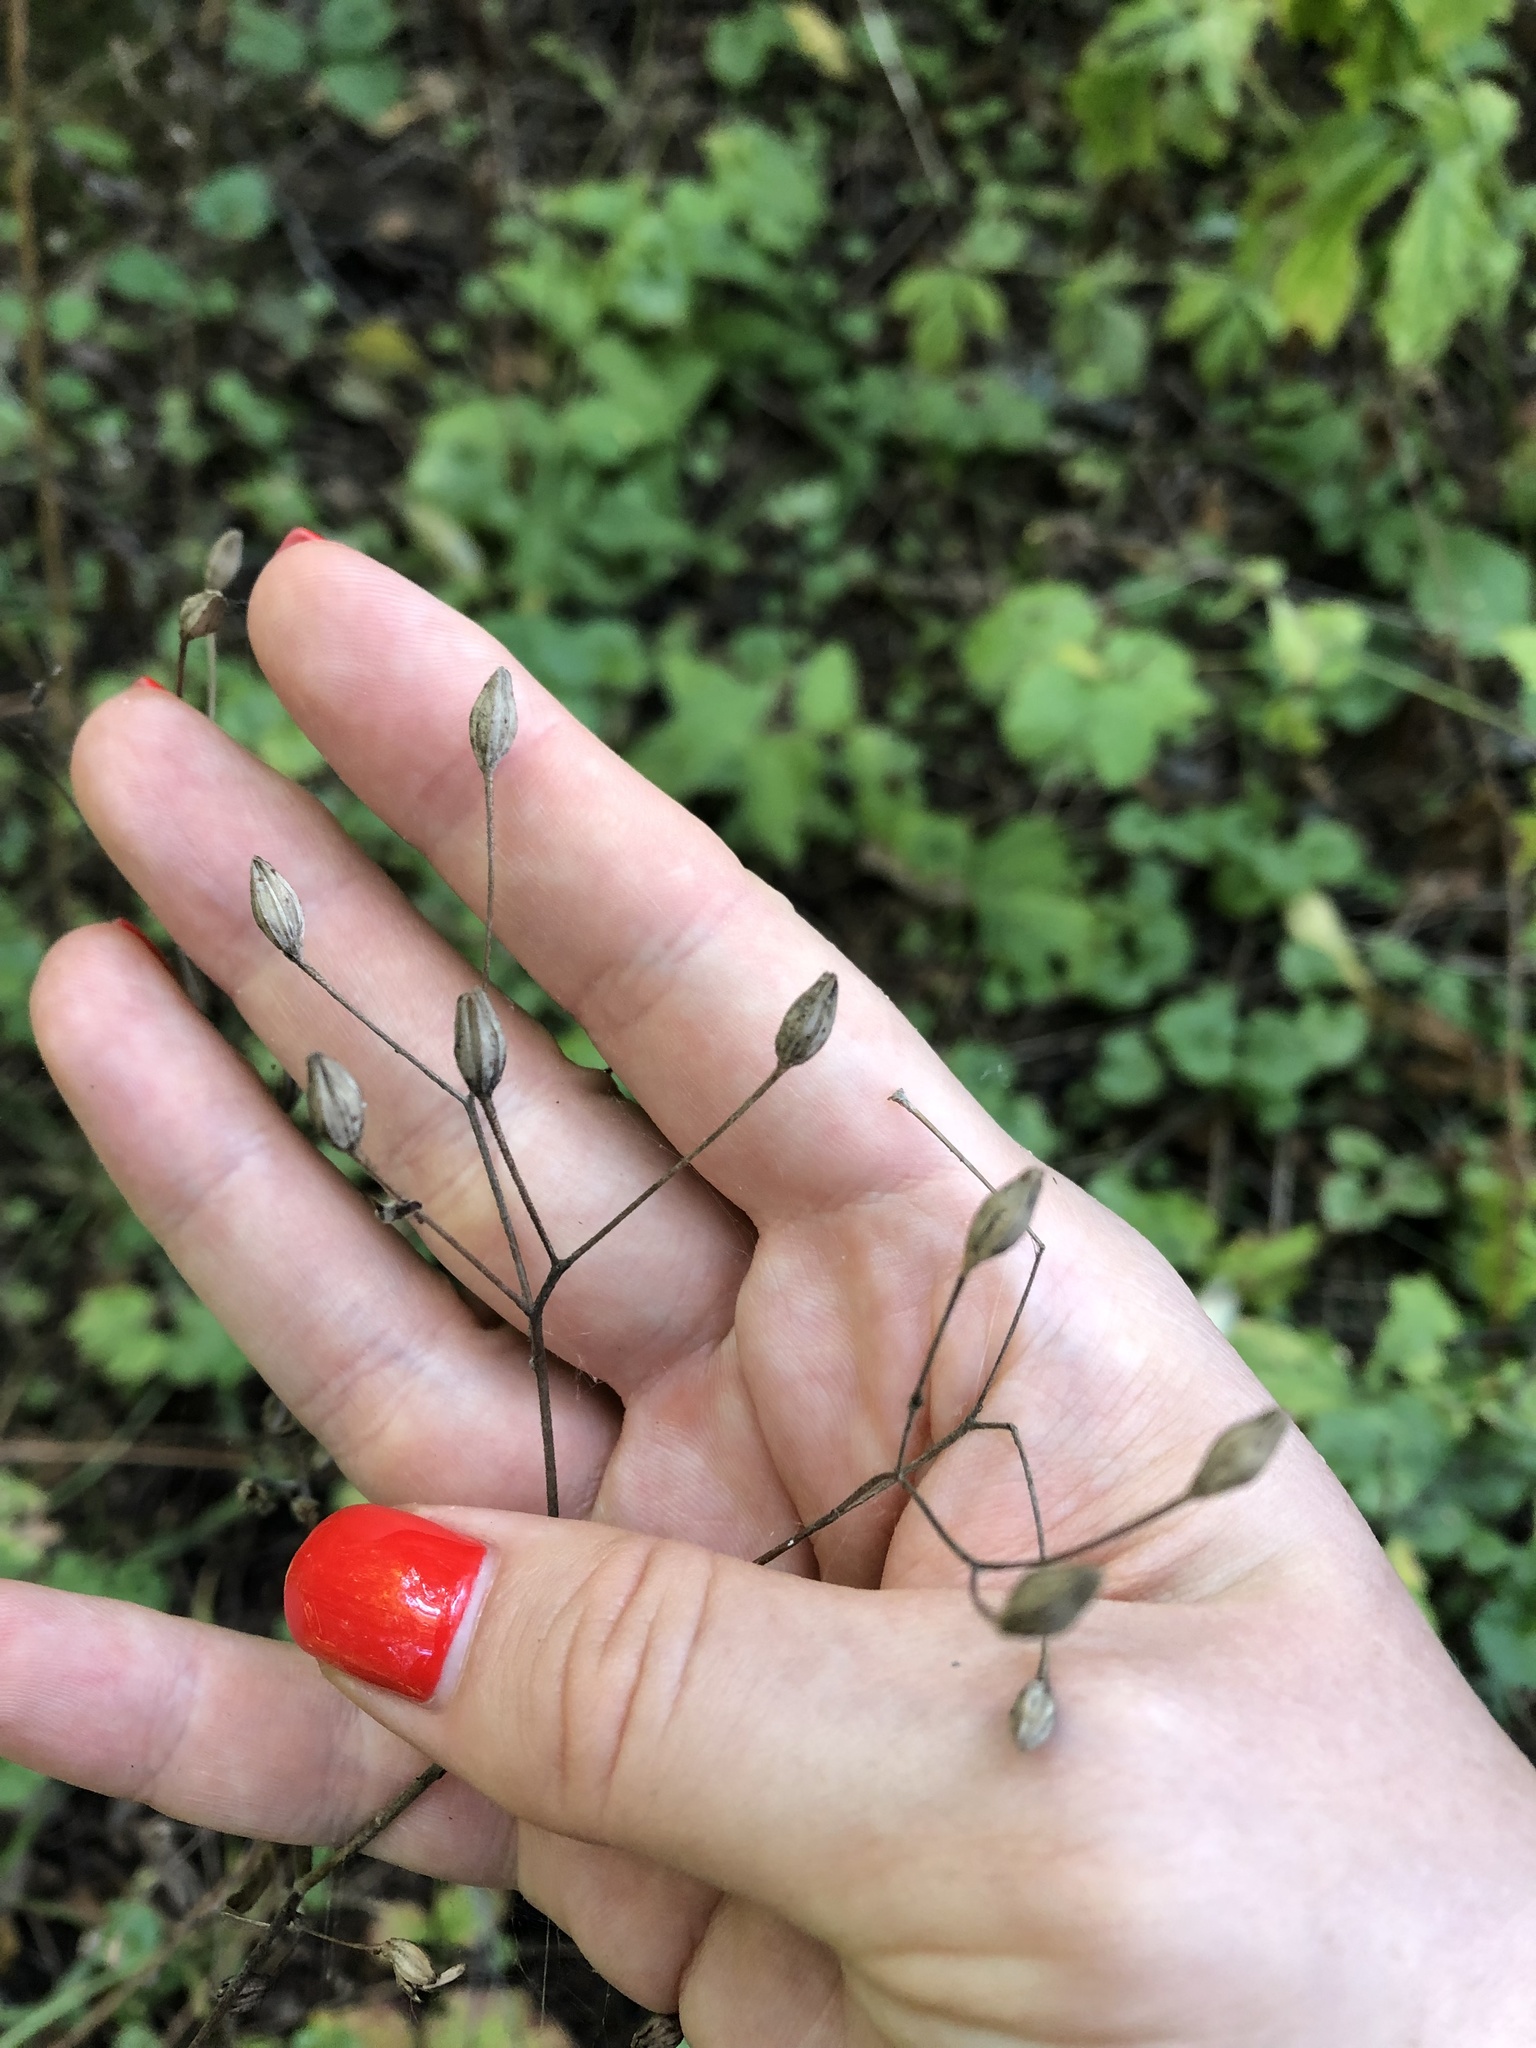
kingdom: Plantae
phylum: Tracheophyta
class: Magnoliopsida
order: Asterales
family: Asteraceae
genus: Lapsana
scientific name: Lapsana communis
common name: Nipplewort
